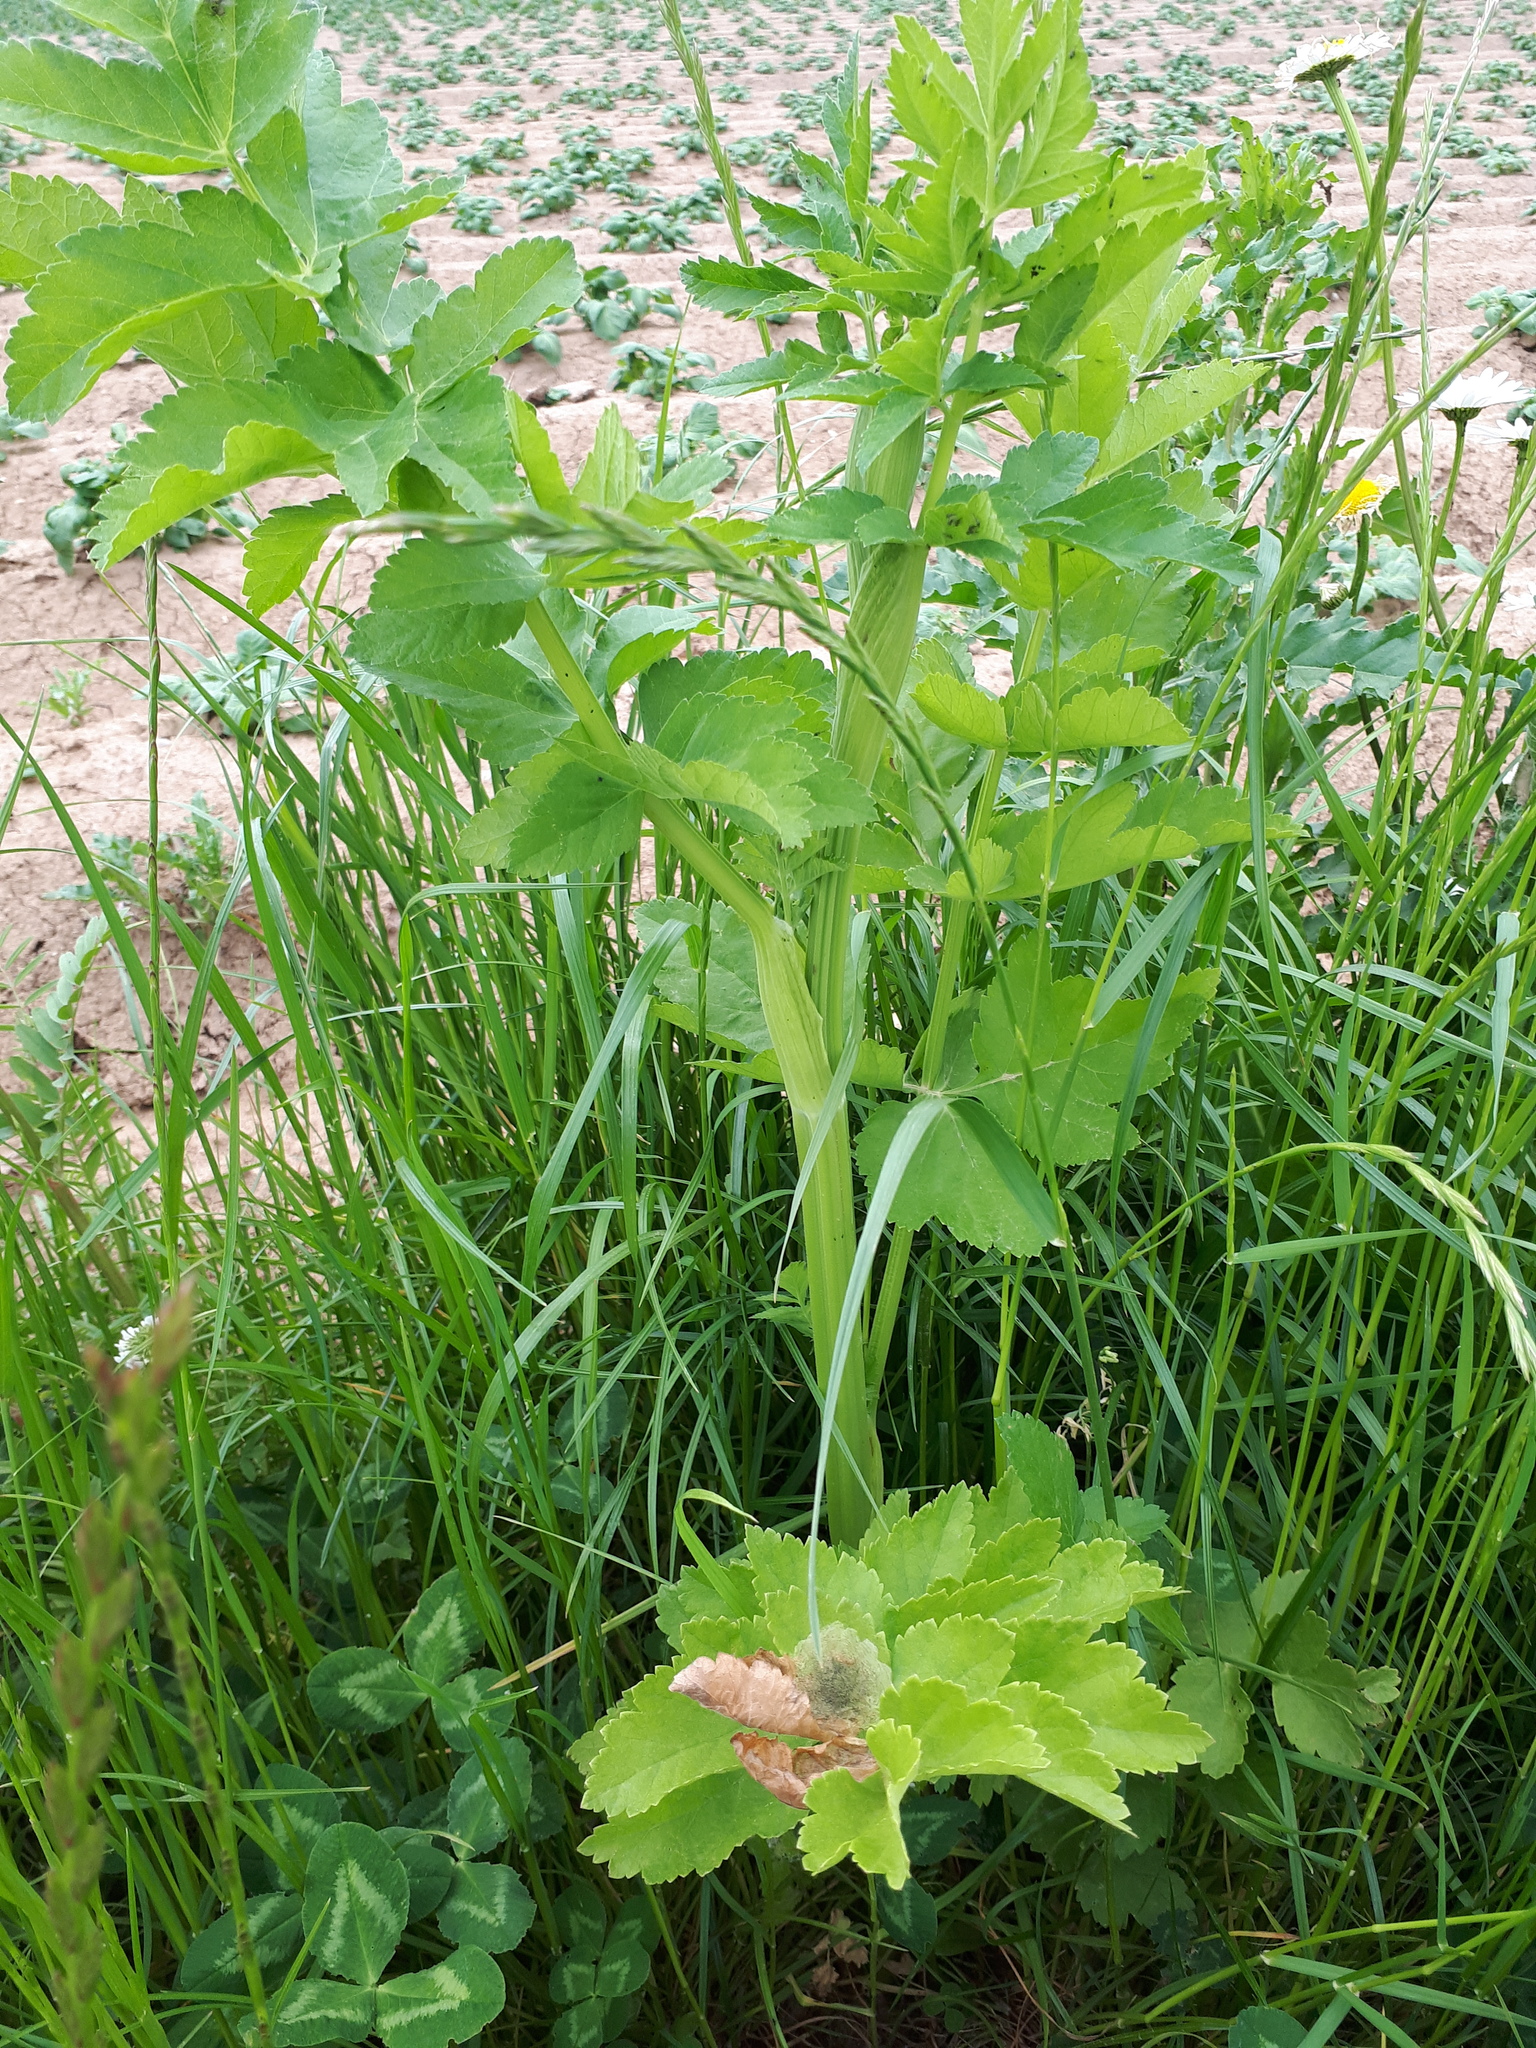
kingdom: Plantae
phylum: Tracheophyta
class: Magnoliopsida
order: Apiales
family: Apiaceae
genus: Pastinaca
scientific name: Pastinaca sativa
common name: Wild parsnip
